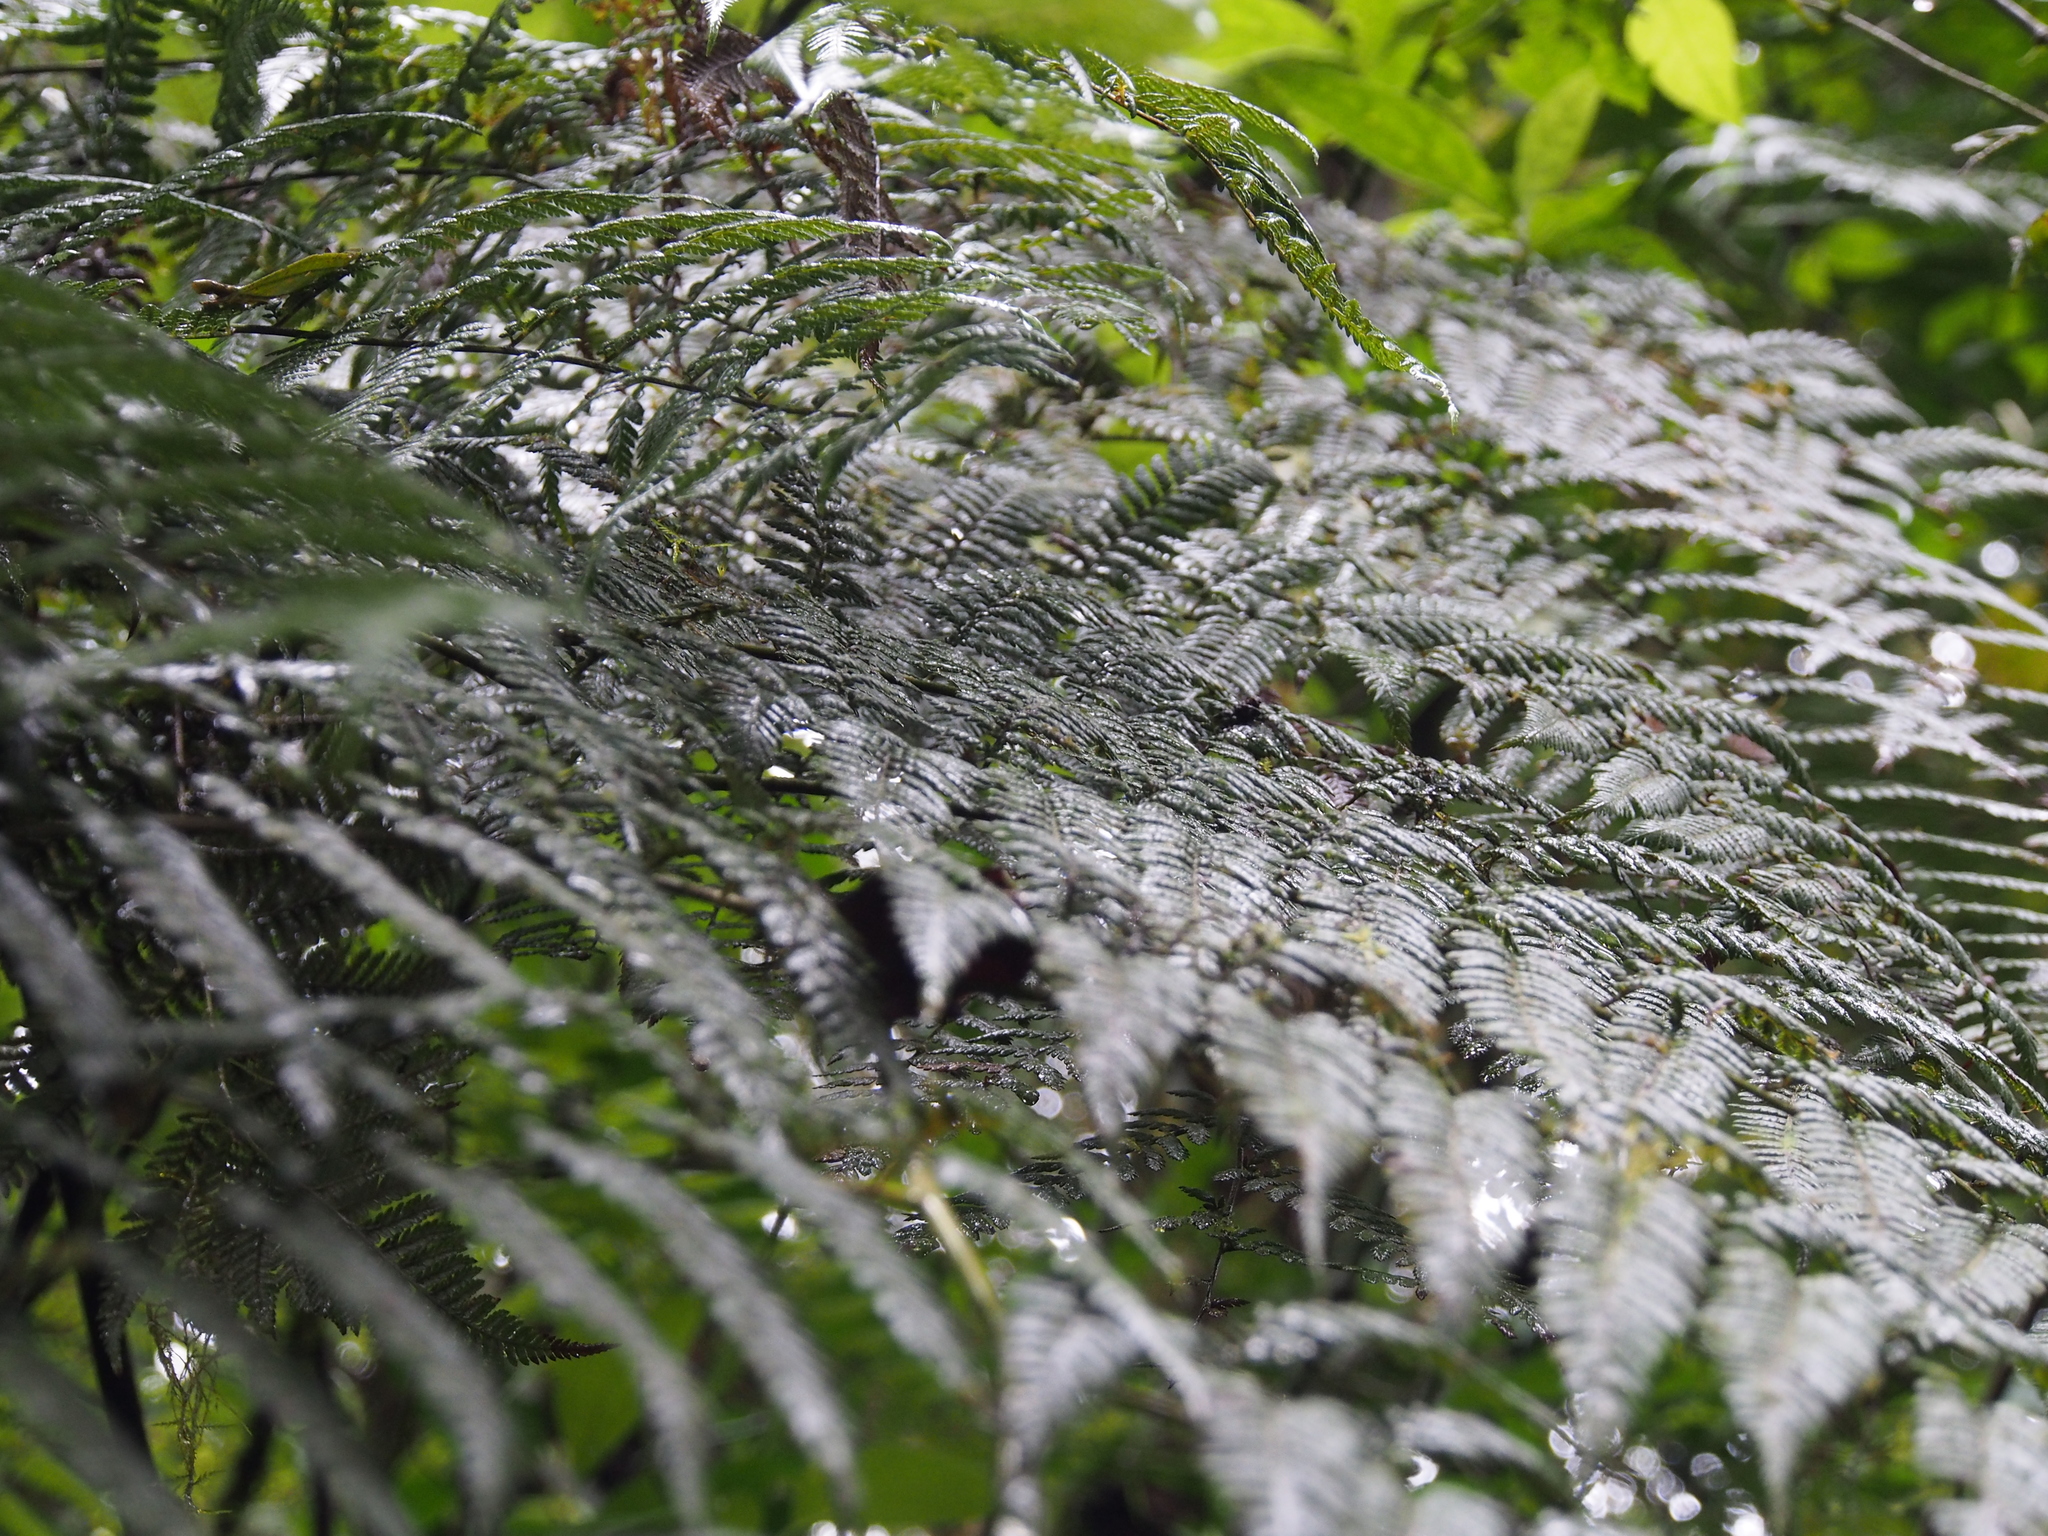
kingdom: Plantae
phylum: Tracheophyta
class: Polypodiopsida
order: Cyatheales
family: Dicksoniaceae
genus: Lophosoria
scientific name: Lophosoria quadripinnata
